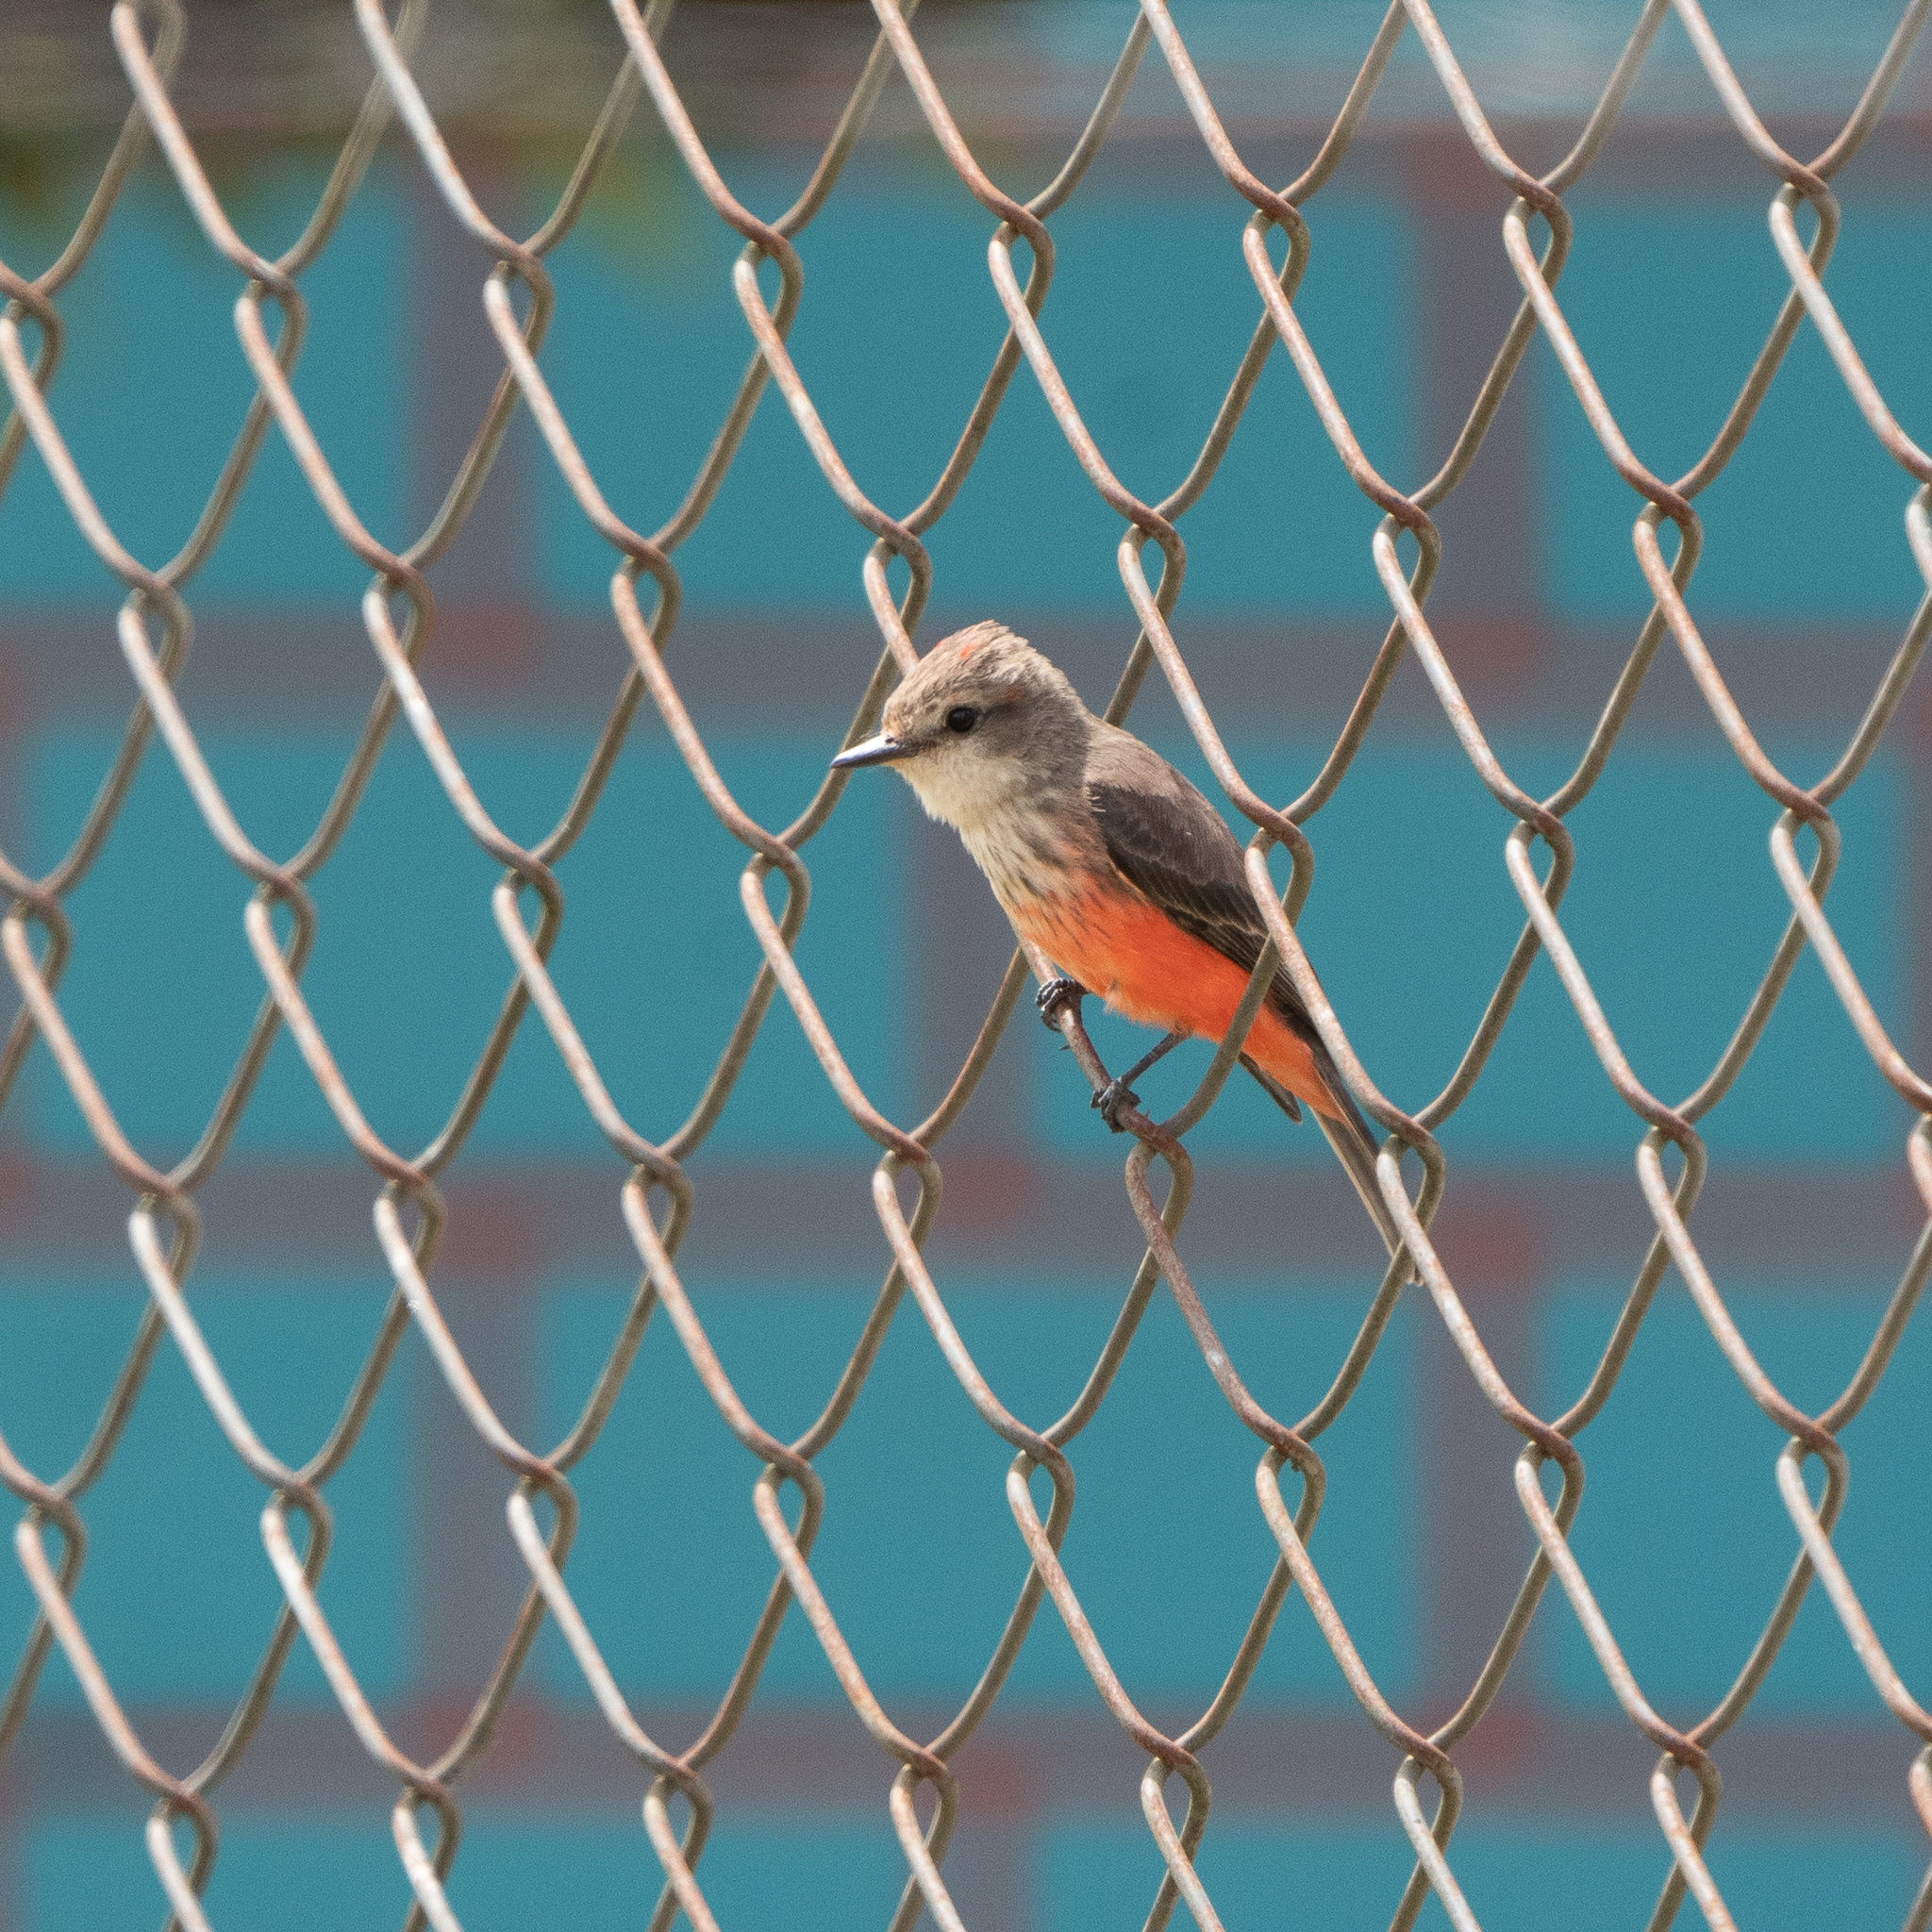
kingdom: Animalia
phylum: Chordata
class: Aves
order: Passeriformes
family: Tyrannidae
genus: Pyrocephalus
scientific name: Pyrocephalus rubinus
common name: Vermilion flycatcher
